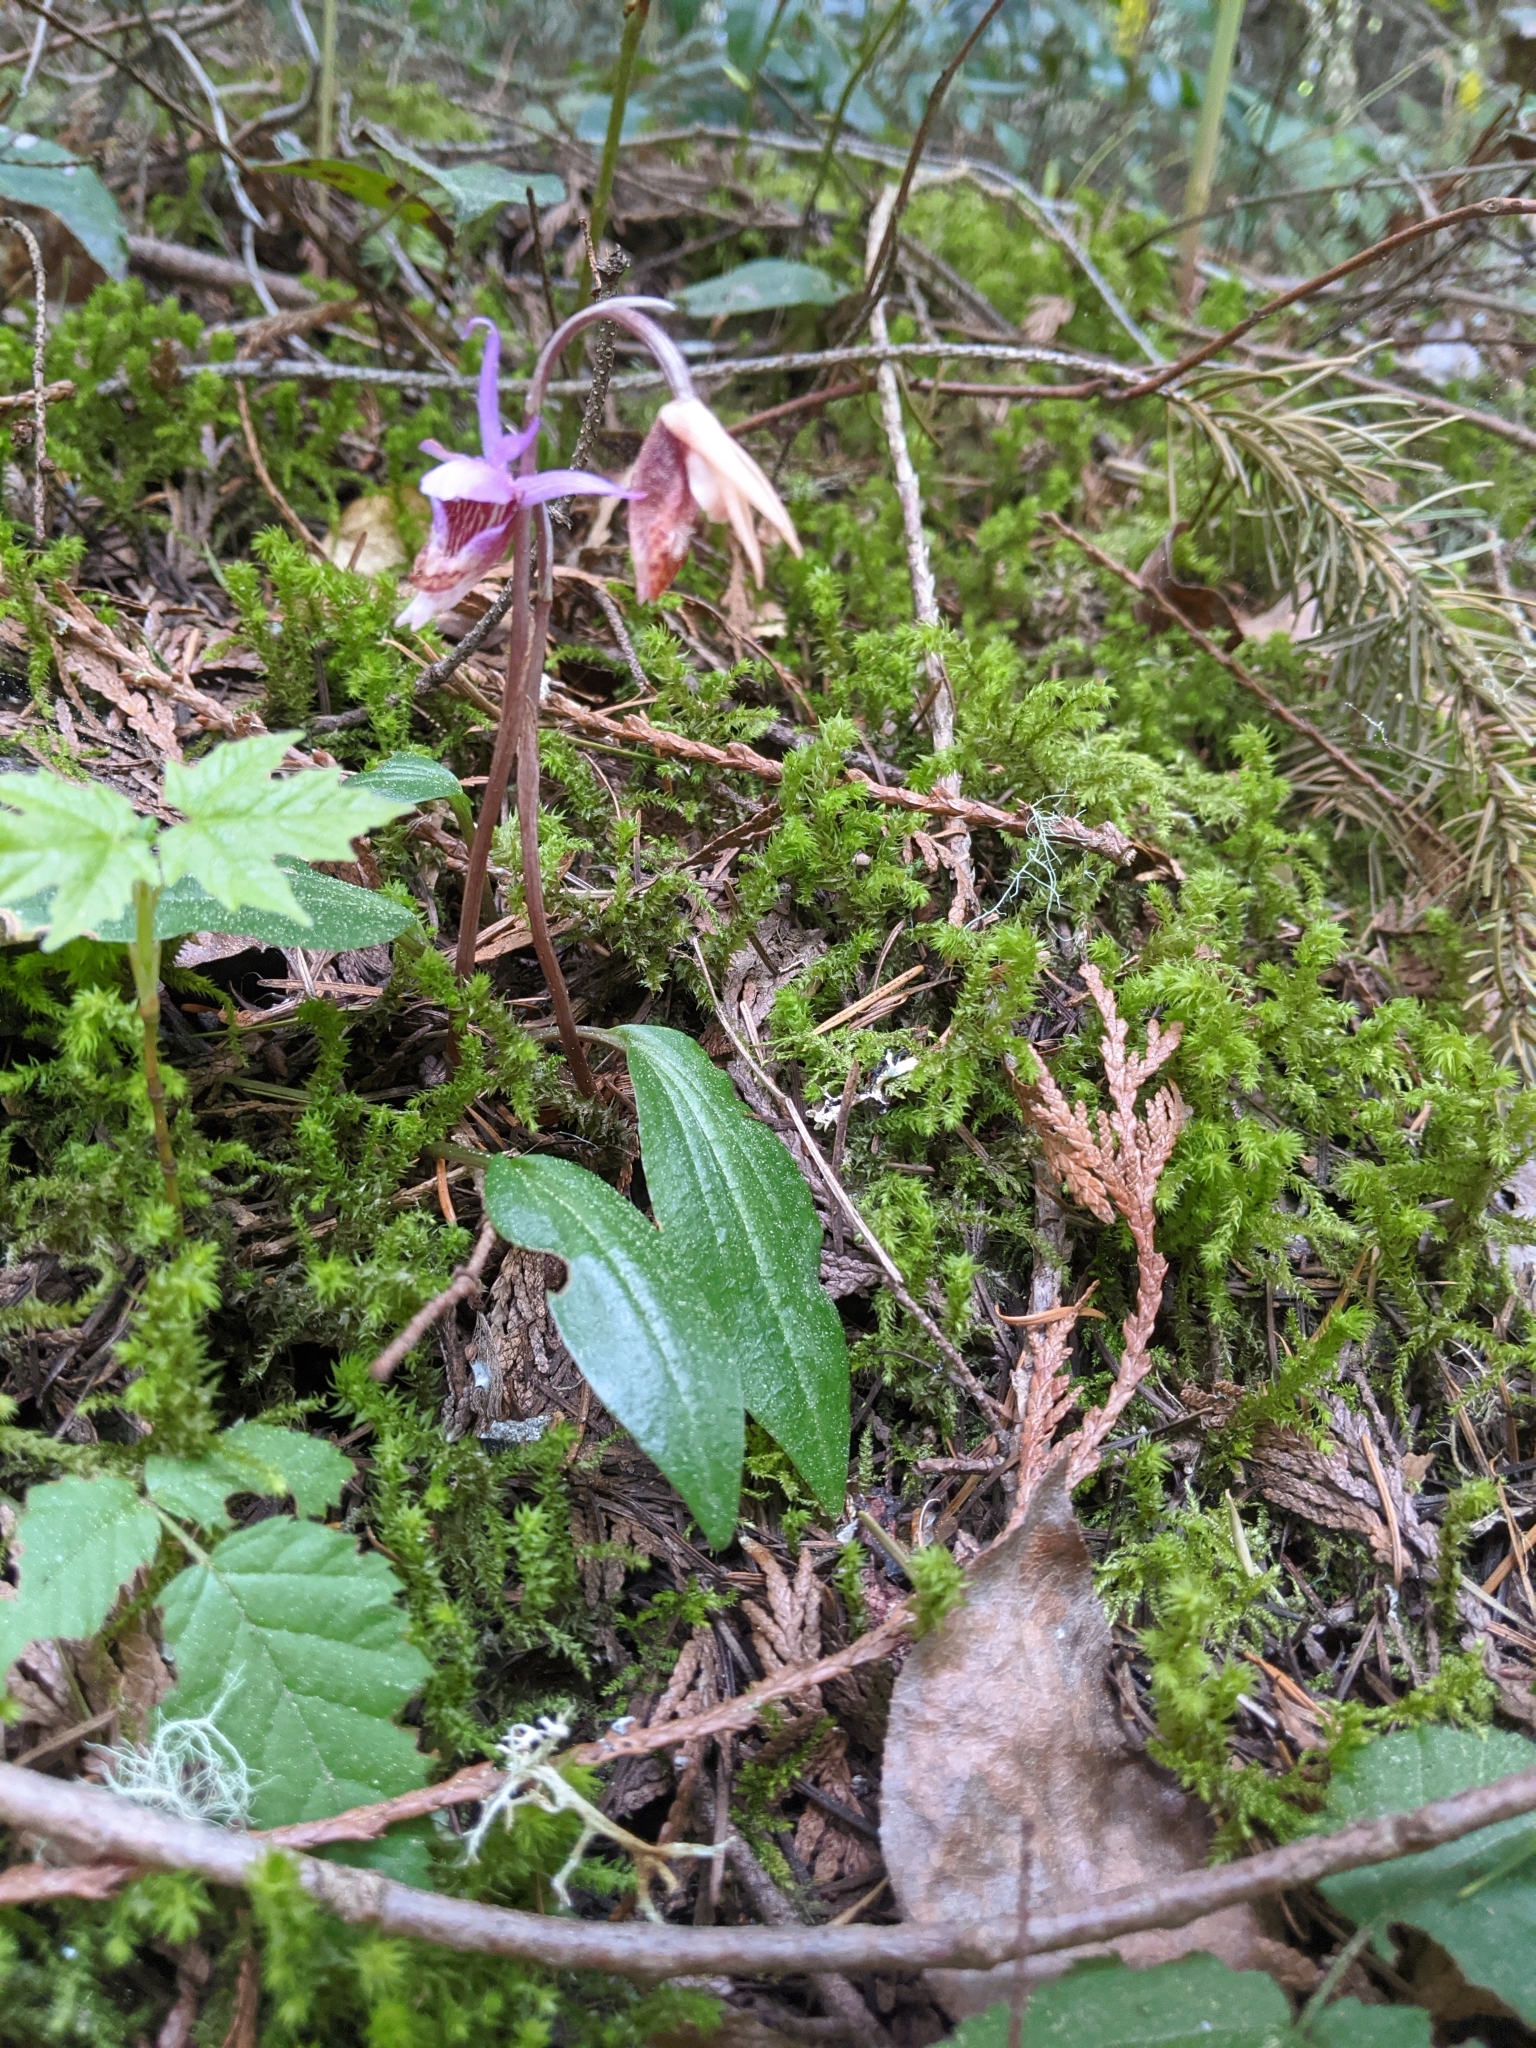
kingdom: Plantae
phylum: Tracheophyta
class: Liliopsida
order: Asparagales
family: Orchidaceae
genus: Calypso
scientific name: Calypso bulbosa
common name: Calypso
